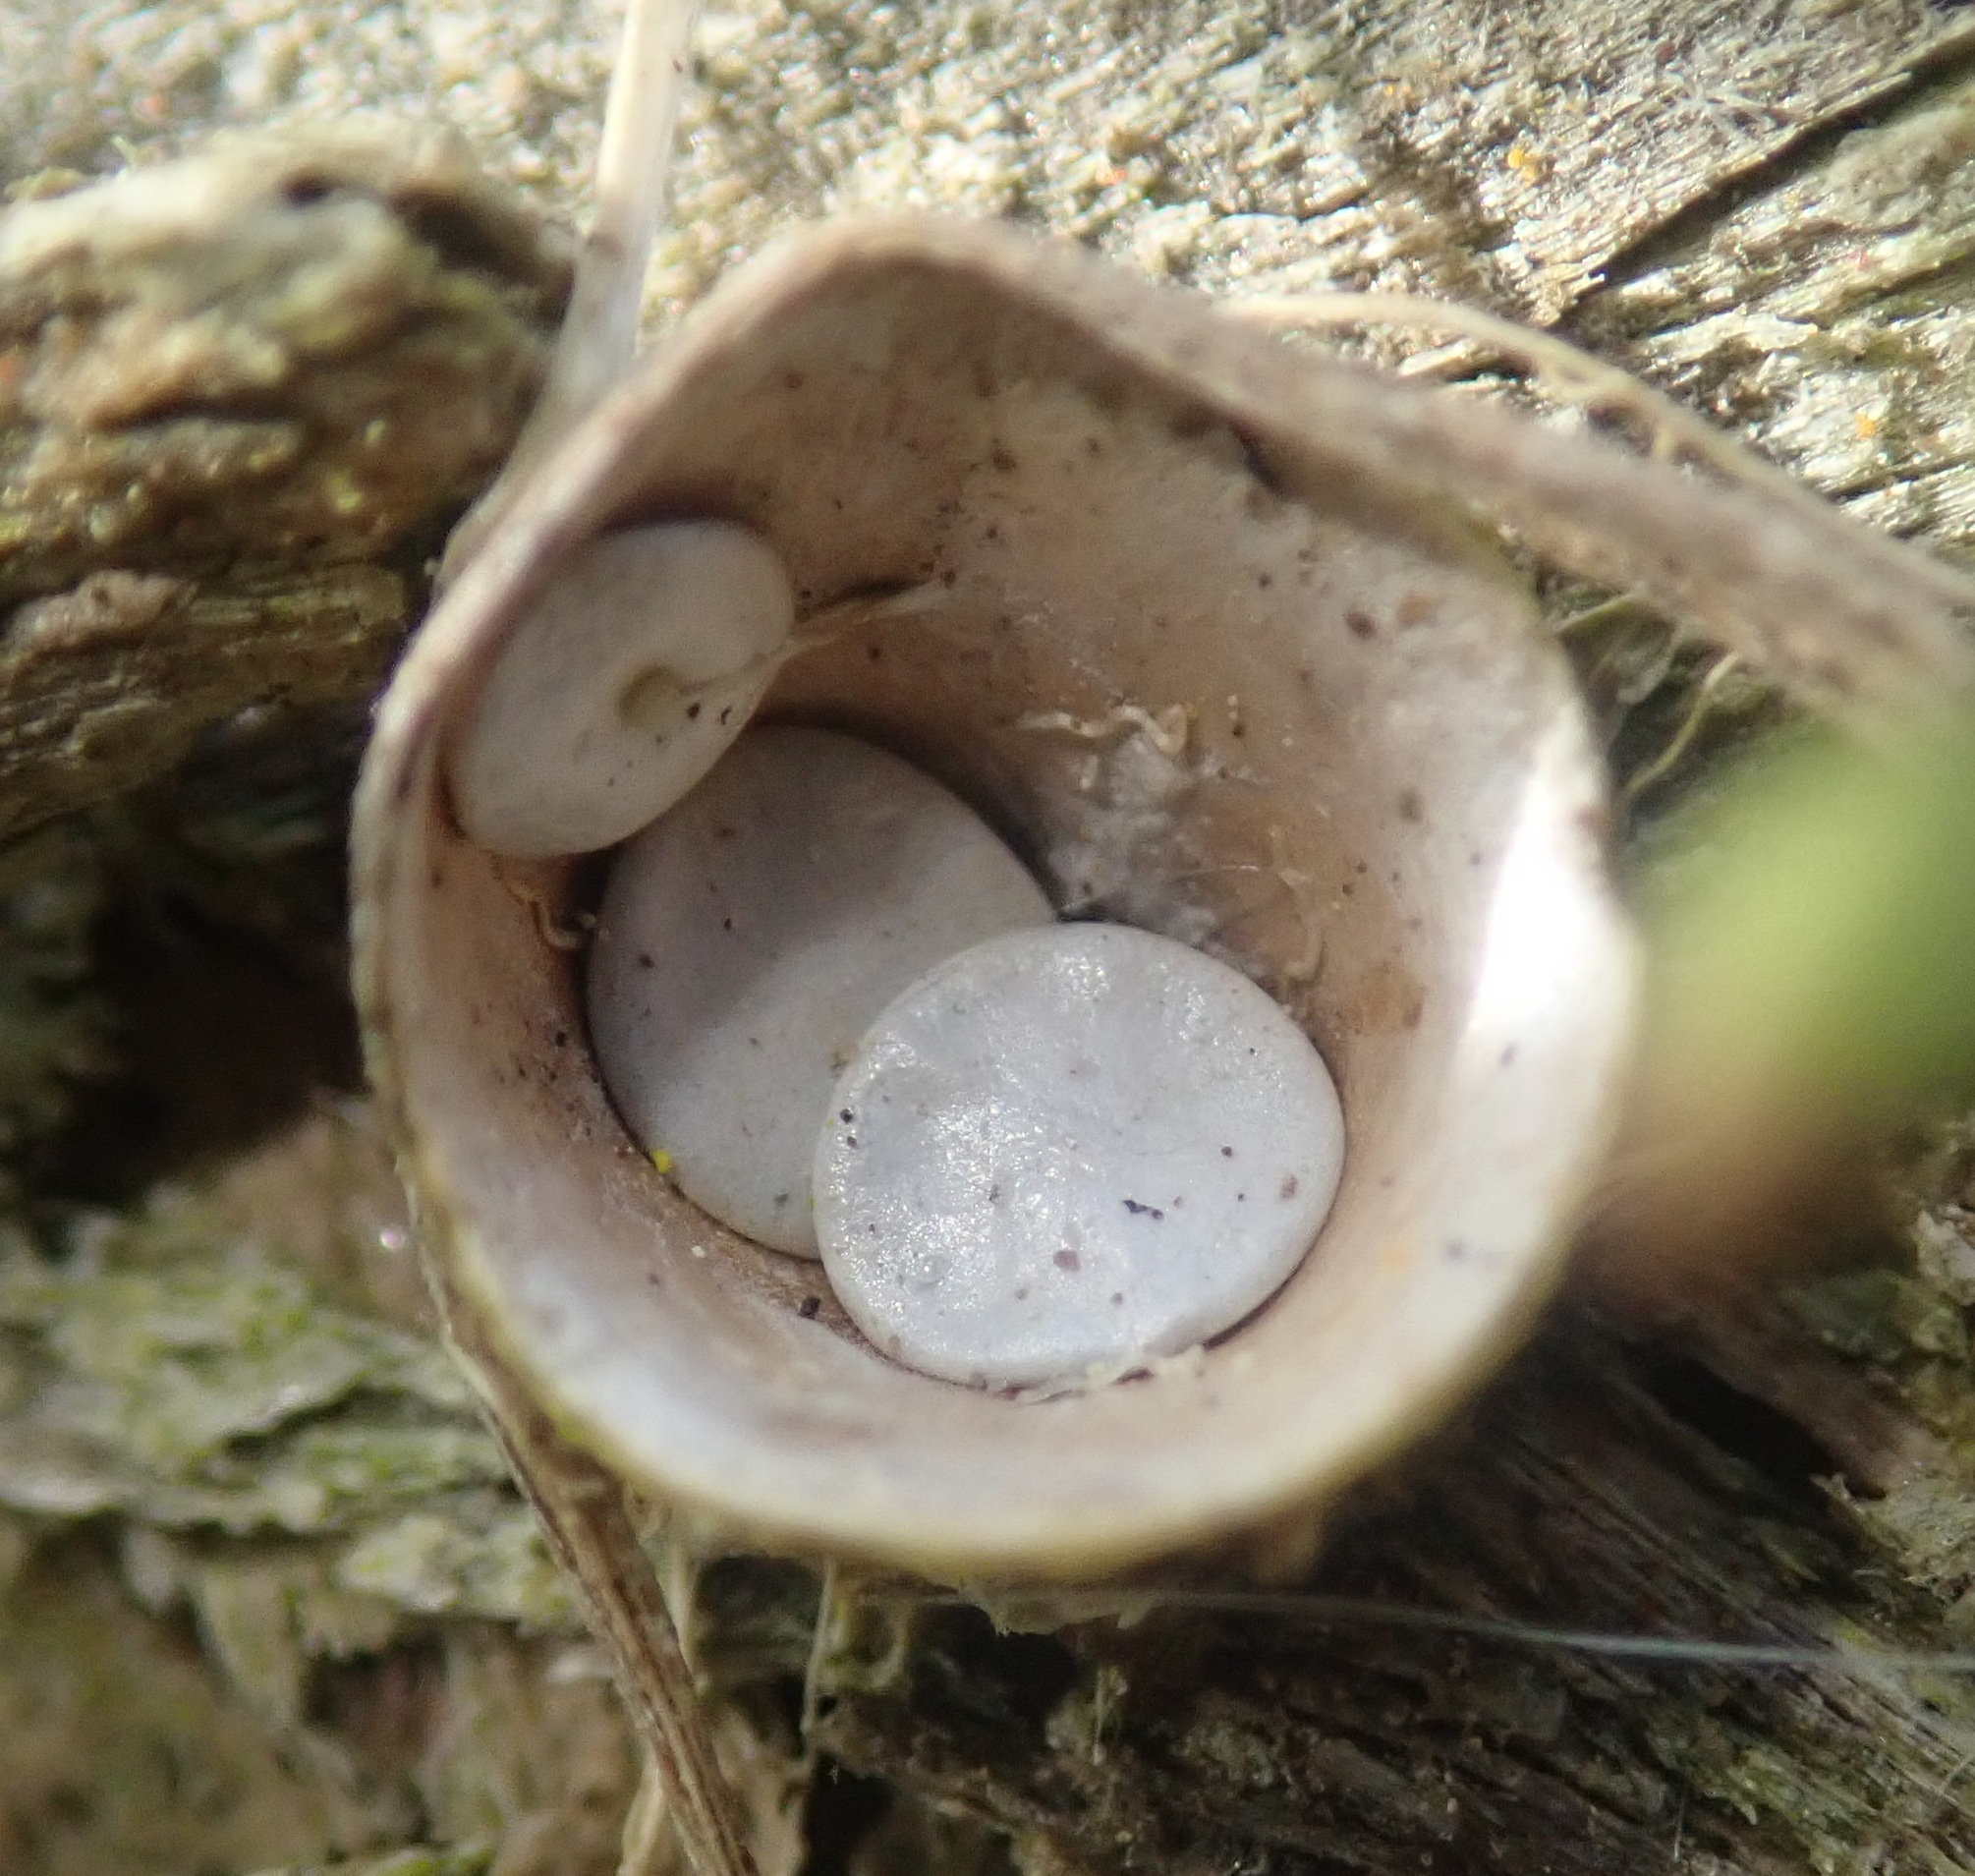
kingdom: Fungi
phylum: Basidiomycota
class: Agaricomycetes
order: Agaricales
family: Nidulariaceae
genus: Crucibulum
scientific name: Crucibulum laeve
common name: Common bird's nest
